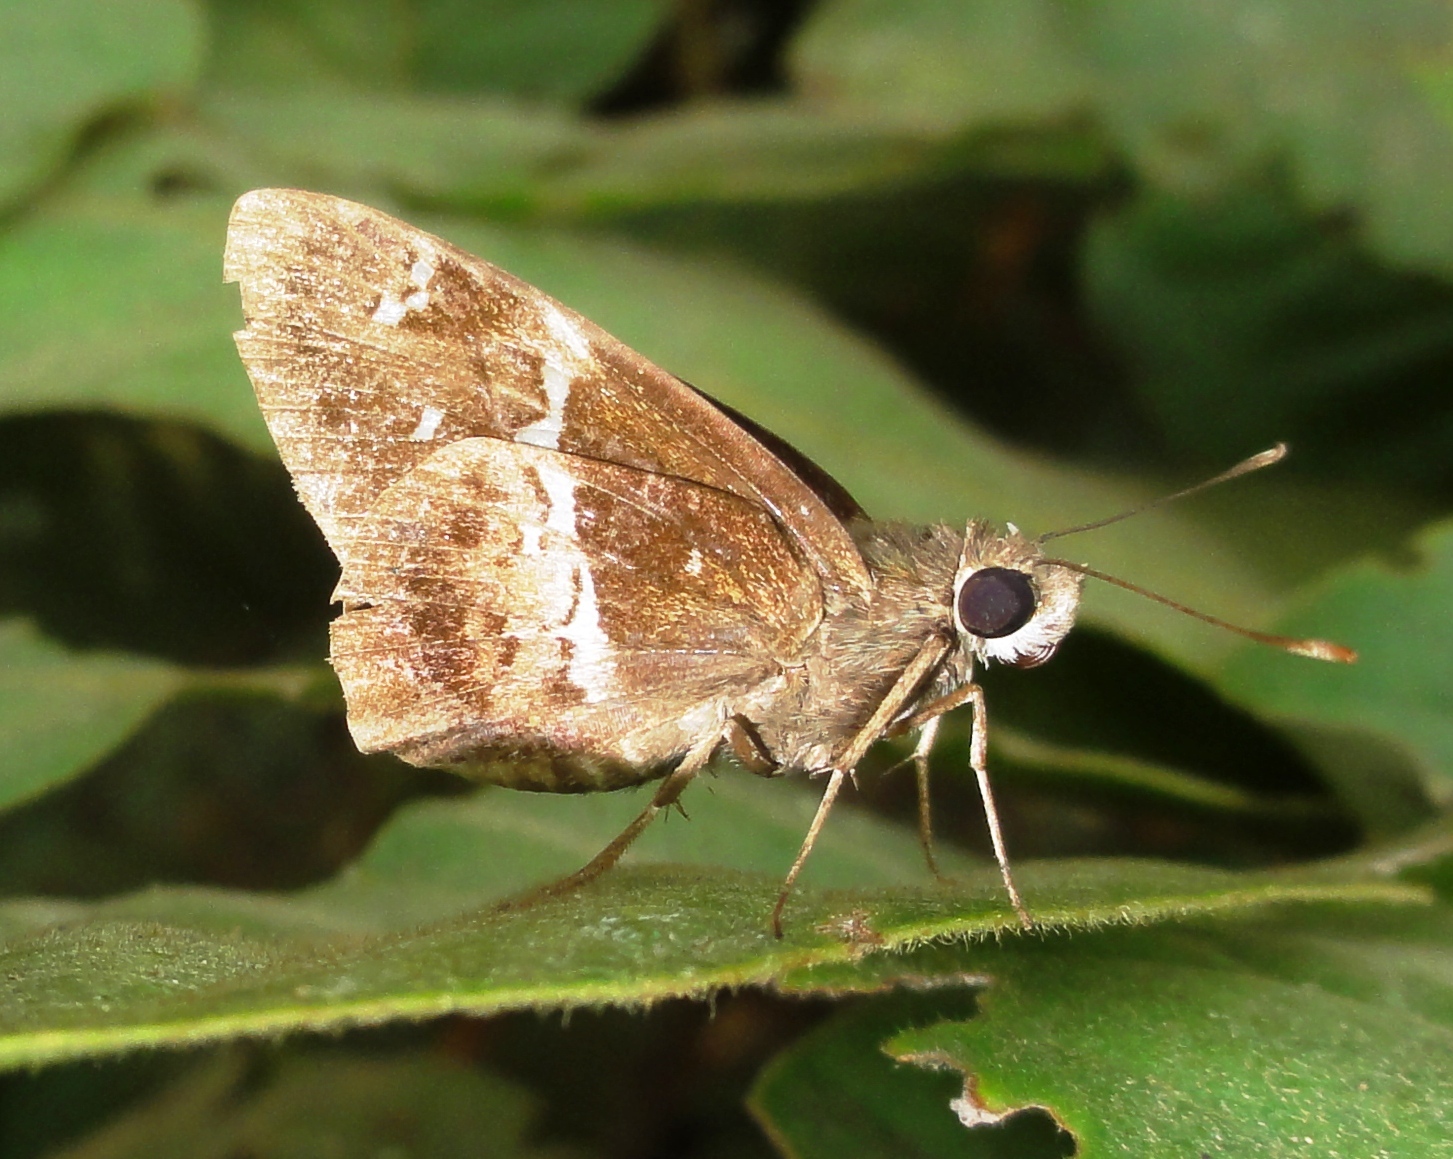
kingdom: Animalia
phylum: Arthropoda
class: Insecta
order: Lepidoptera
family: Hesperiidae
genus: Hyarotis
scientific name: Hyarotis adrastus
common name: Tree flitter
